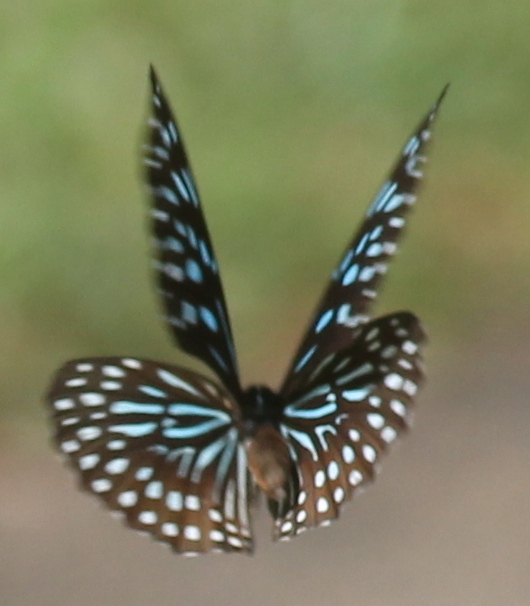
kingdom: Animalia
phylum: Arthropoda
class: Insecta
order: Lepidoptera
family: Nymphalidae
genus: Tirumala
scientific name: Tirumala septentrionis
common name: Dark blue tiger butterfly
